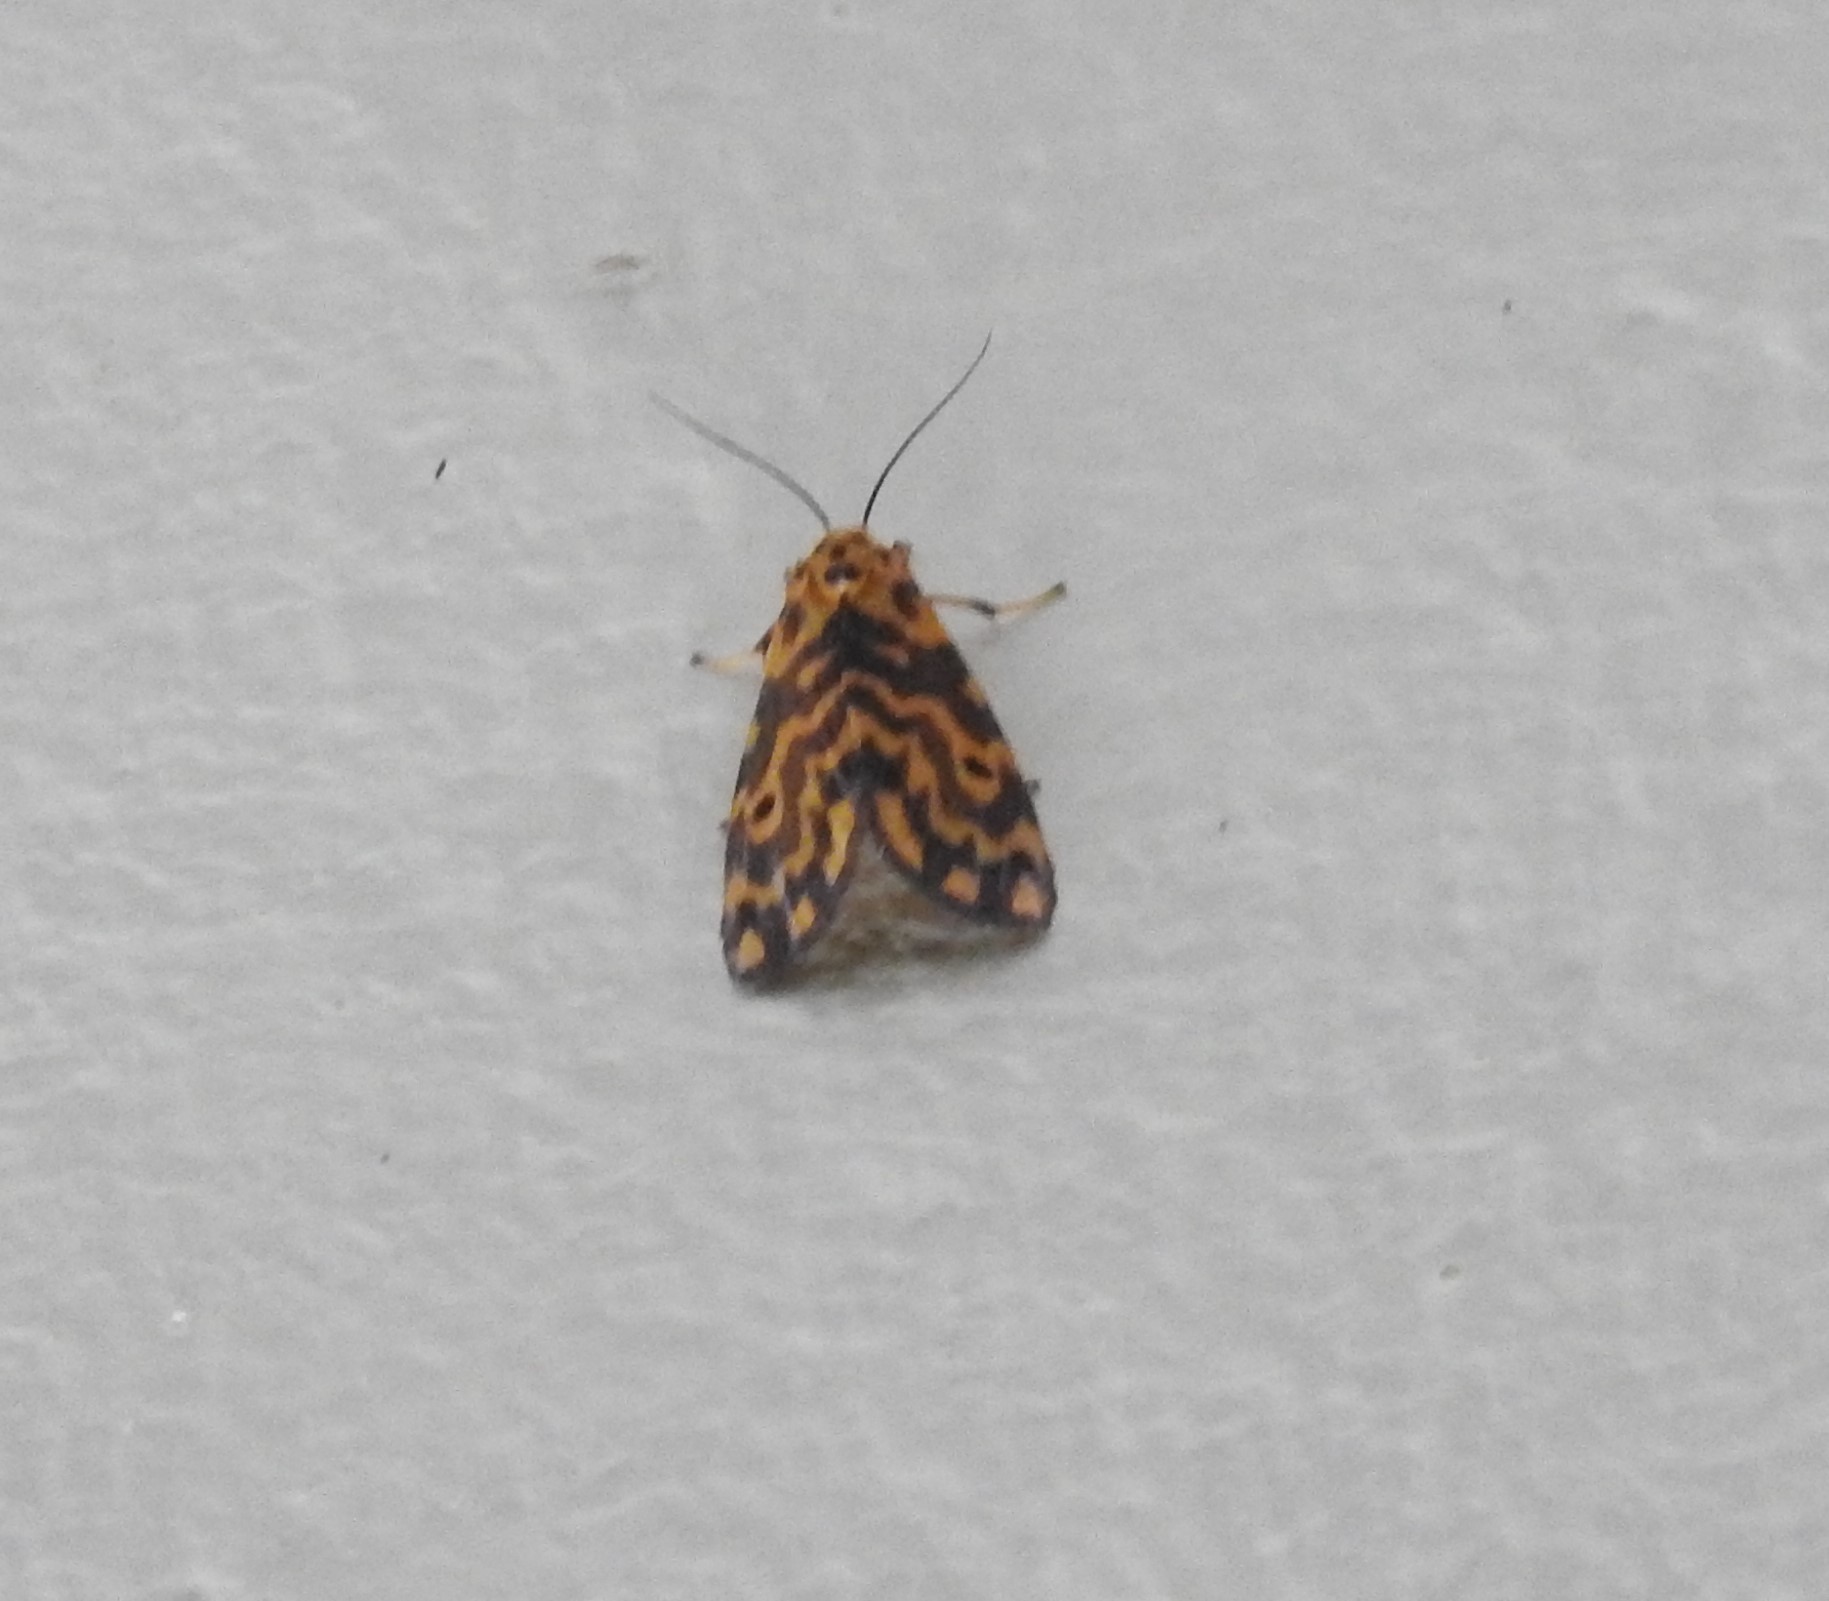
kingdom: Animalia
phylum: Arthropoda
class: Insecta
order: Lepidoptera
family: Erebidae
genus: Nepita
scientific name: Nepita conferta
